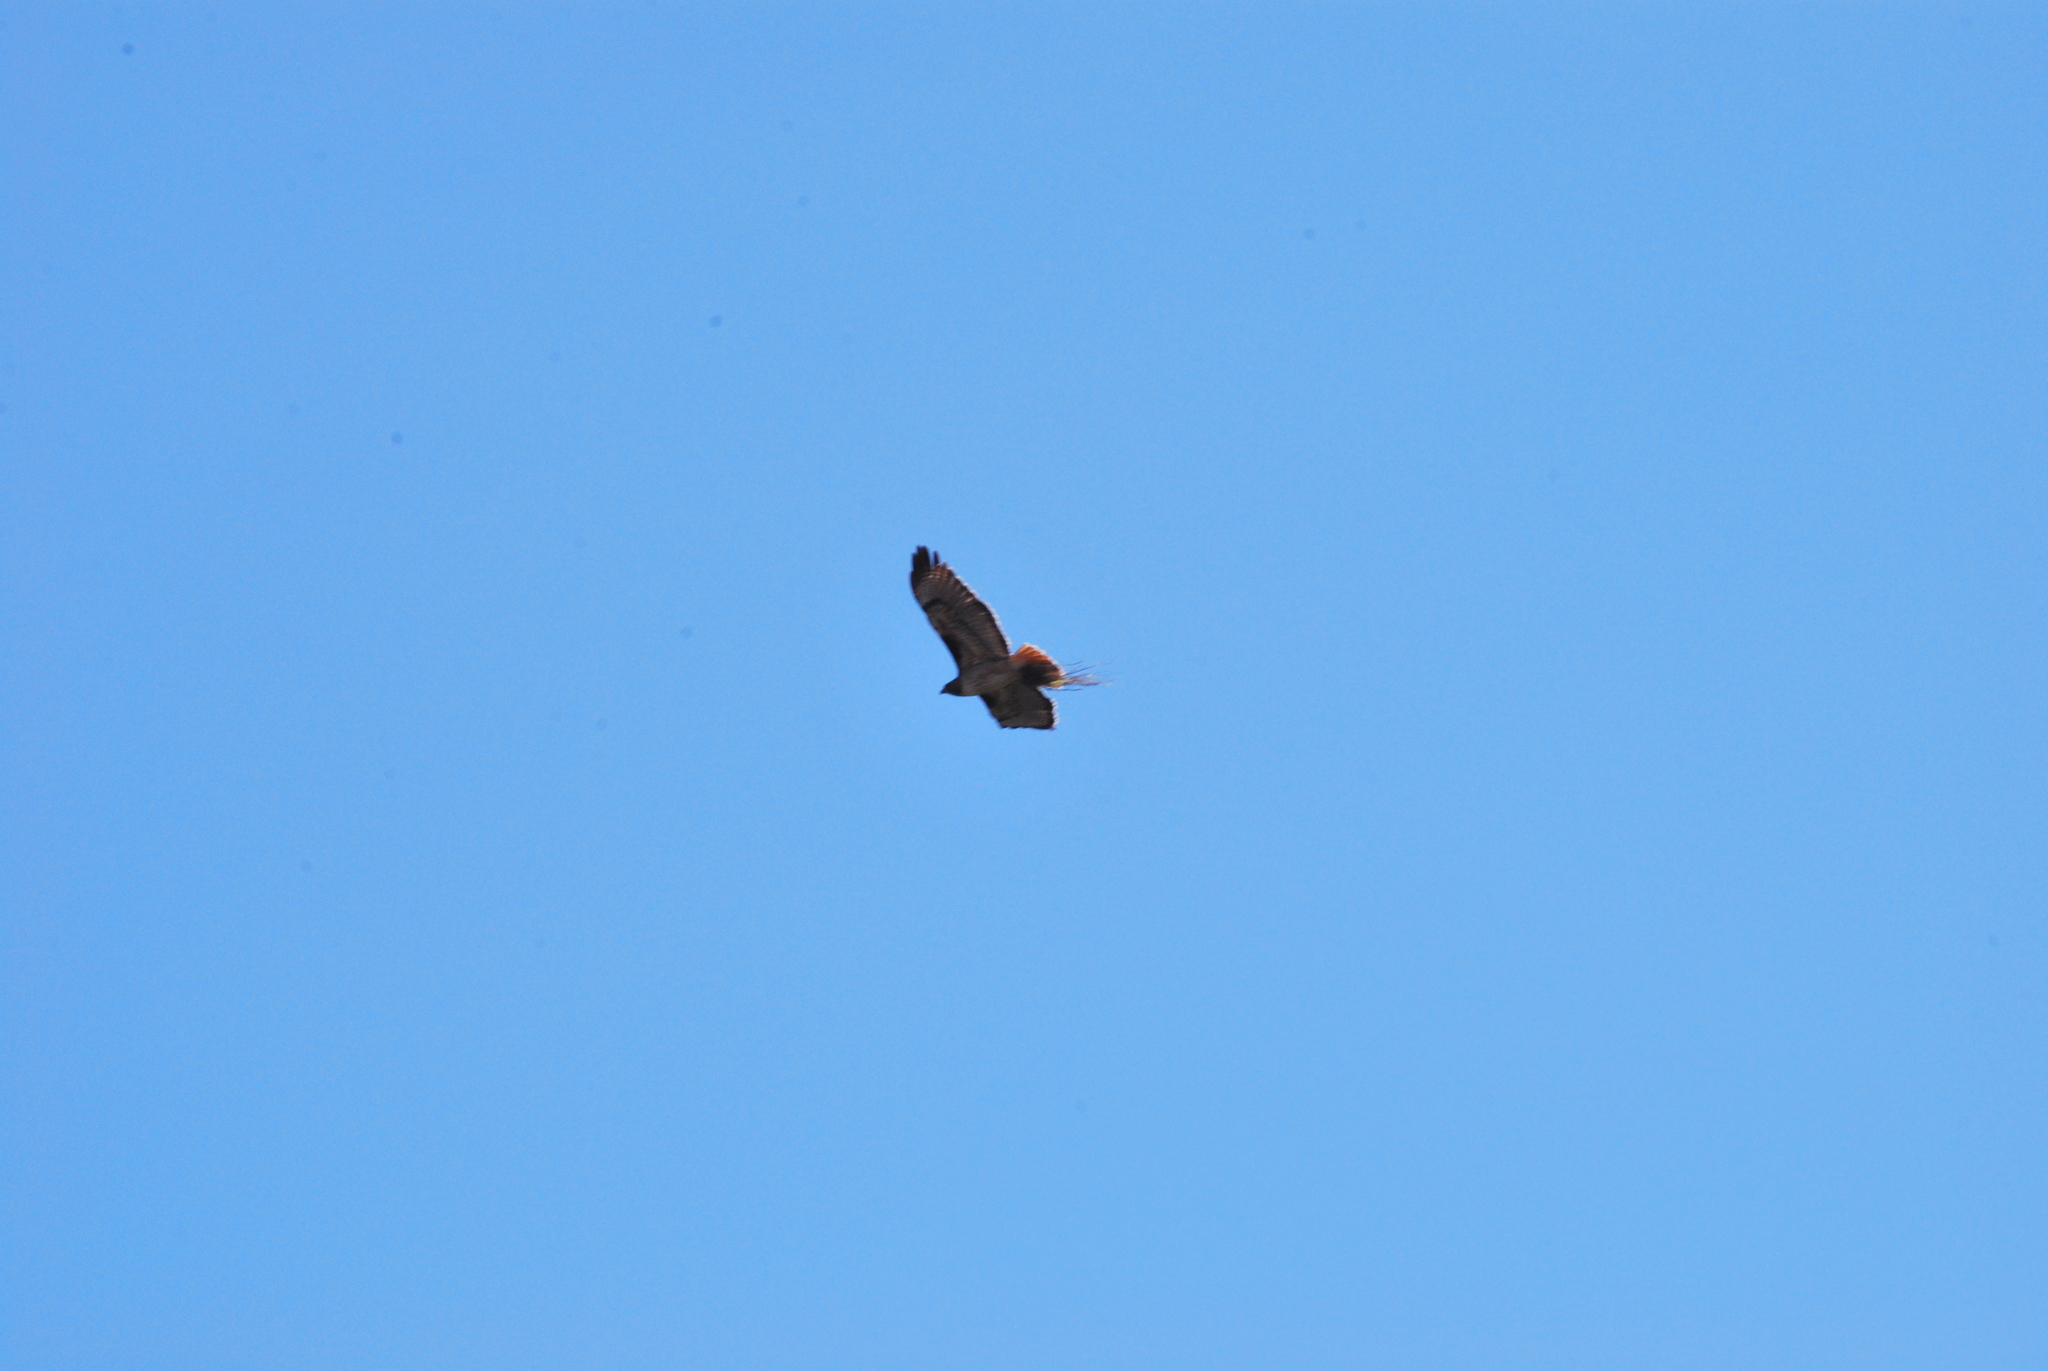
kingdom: Animalia
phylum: Chordata
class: Aves
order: Accipitriformes
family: Accipitridae
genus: Buteo
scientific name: Buteo jamaicensis
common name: Red-tailed hawk
